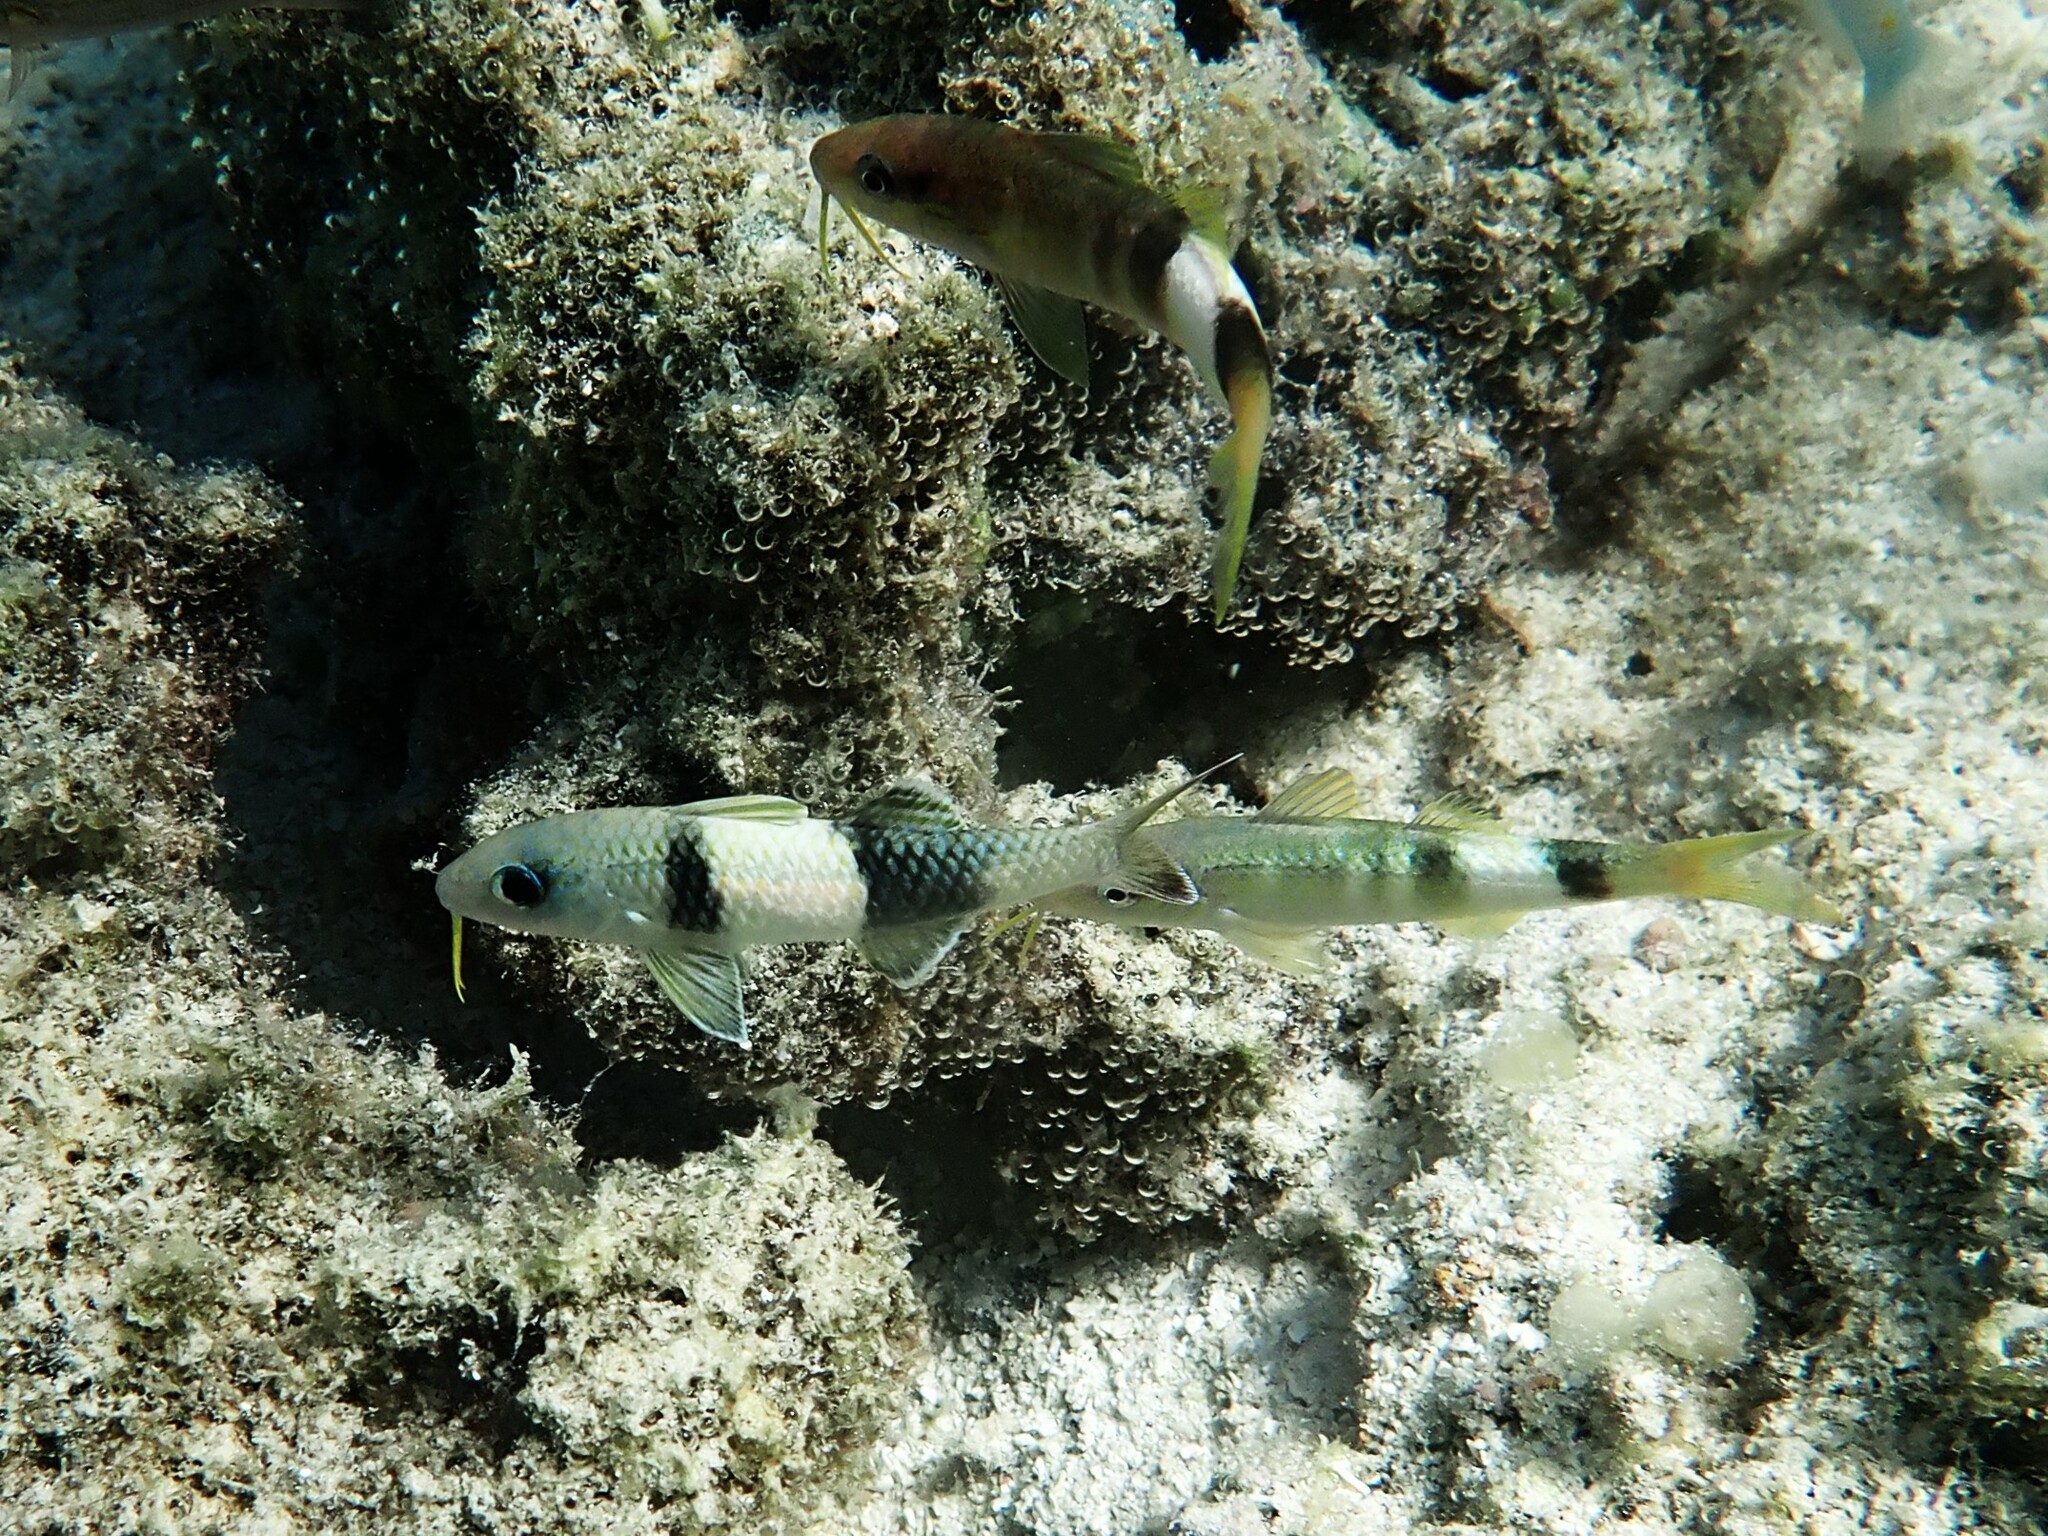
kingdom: Animalia
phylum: Chordata
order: Perciformes
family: Mullidae
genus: Parupeneus
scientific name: Parupeneus multifasciatus
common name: Manybar goatfish
